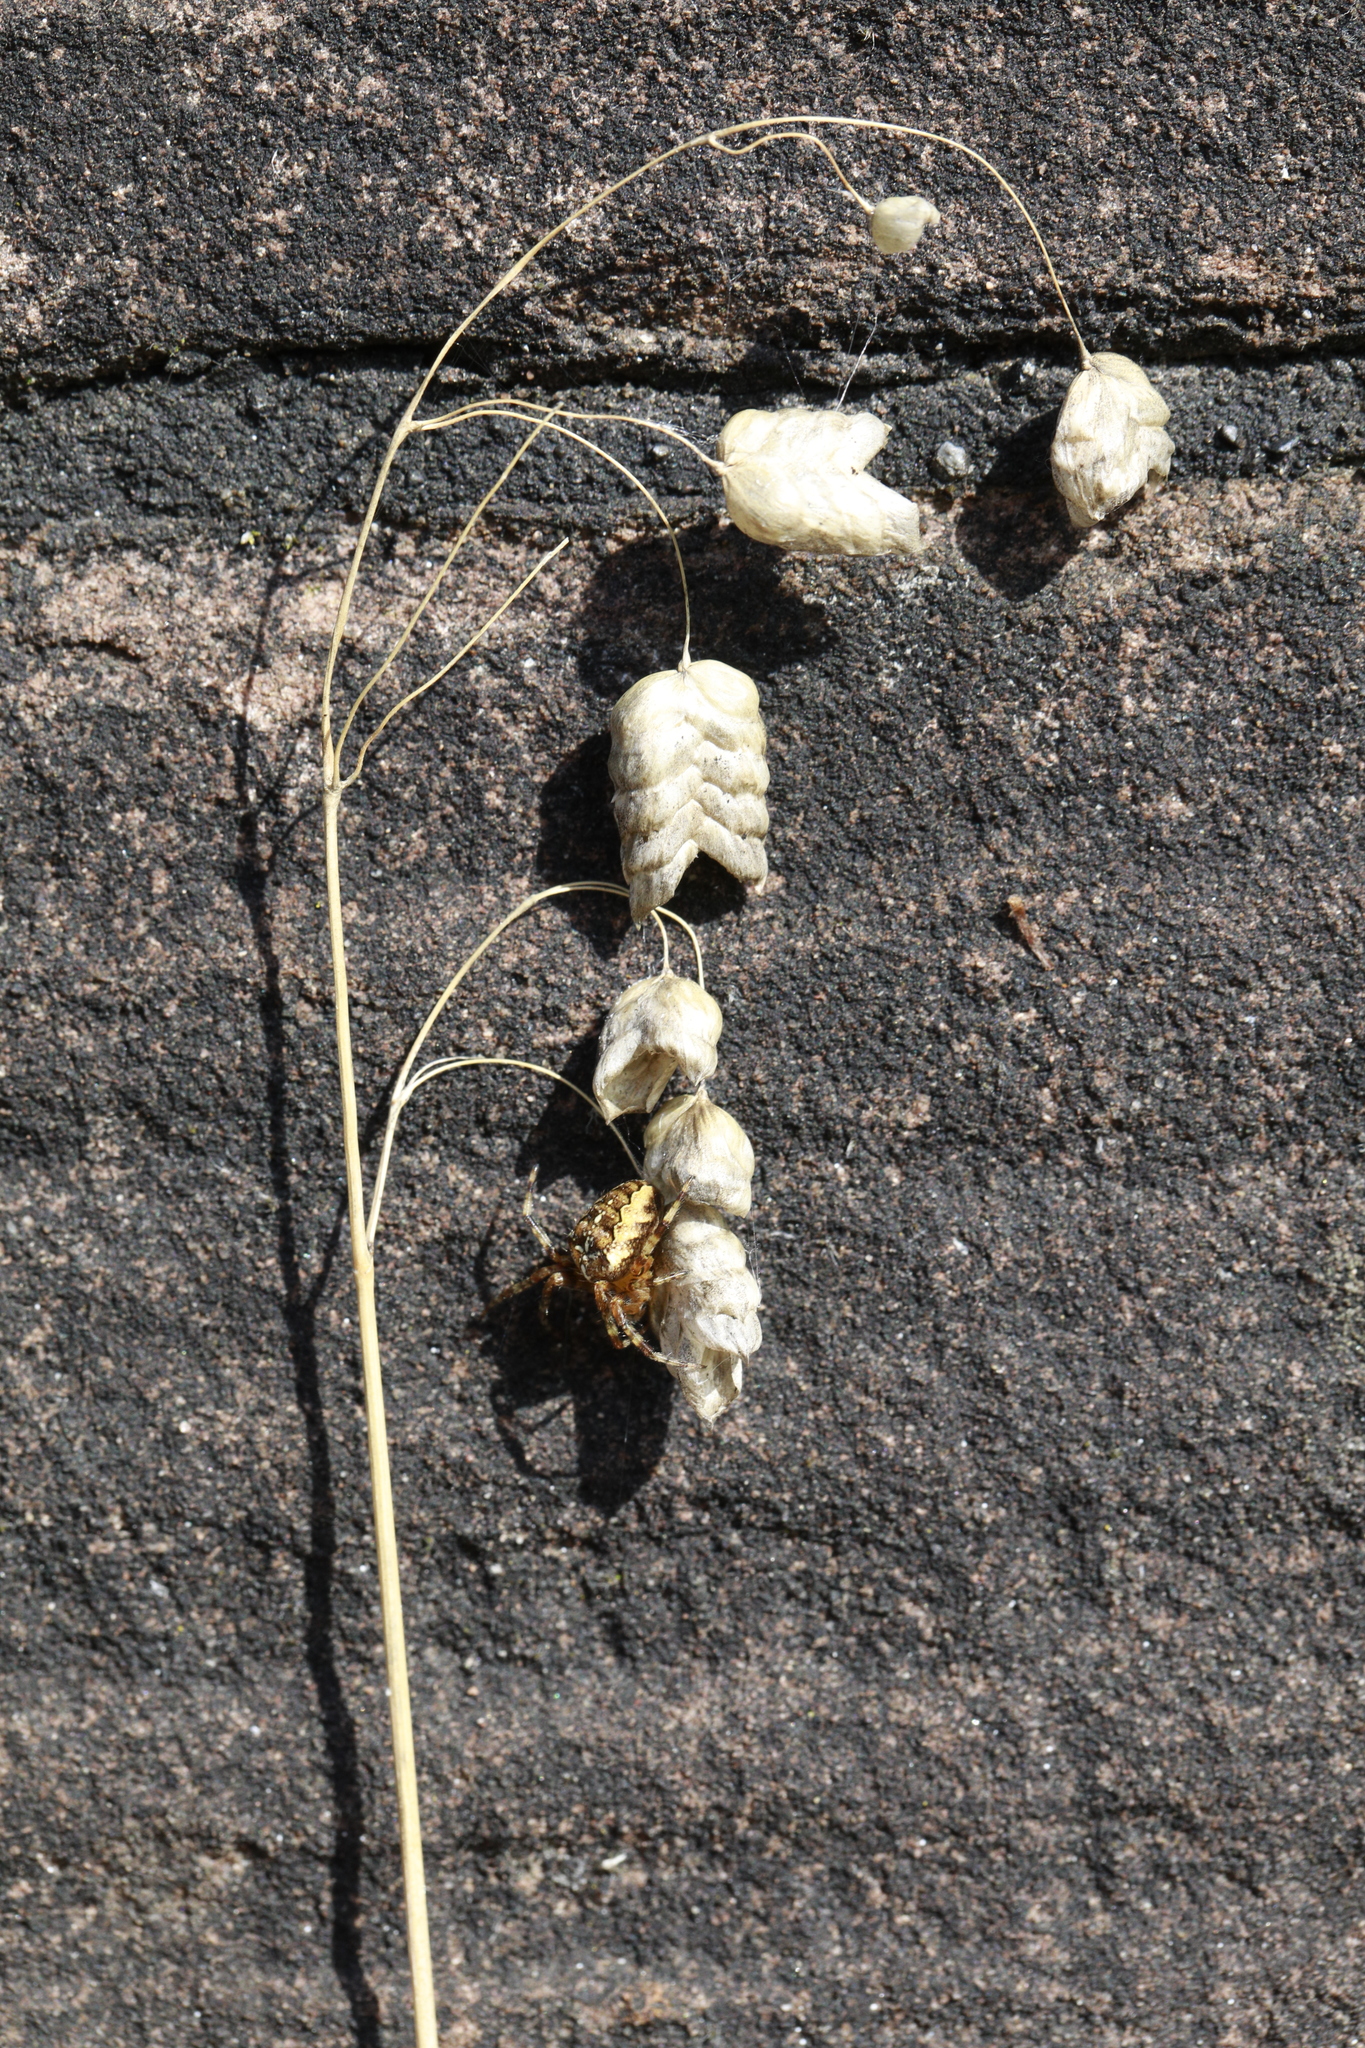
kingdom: Plantae
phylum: Tracheophyta
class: Liliopsida
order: Poales
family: Poaceae
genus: Briza
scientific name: Briza maxima
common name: Big quakinggrass
